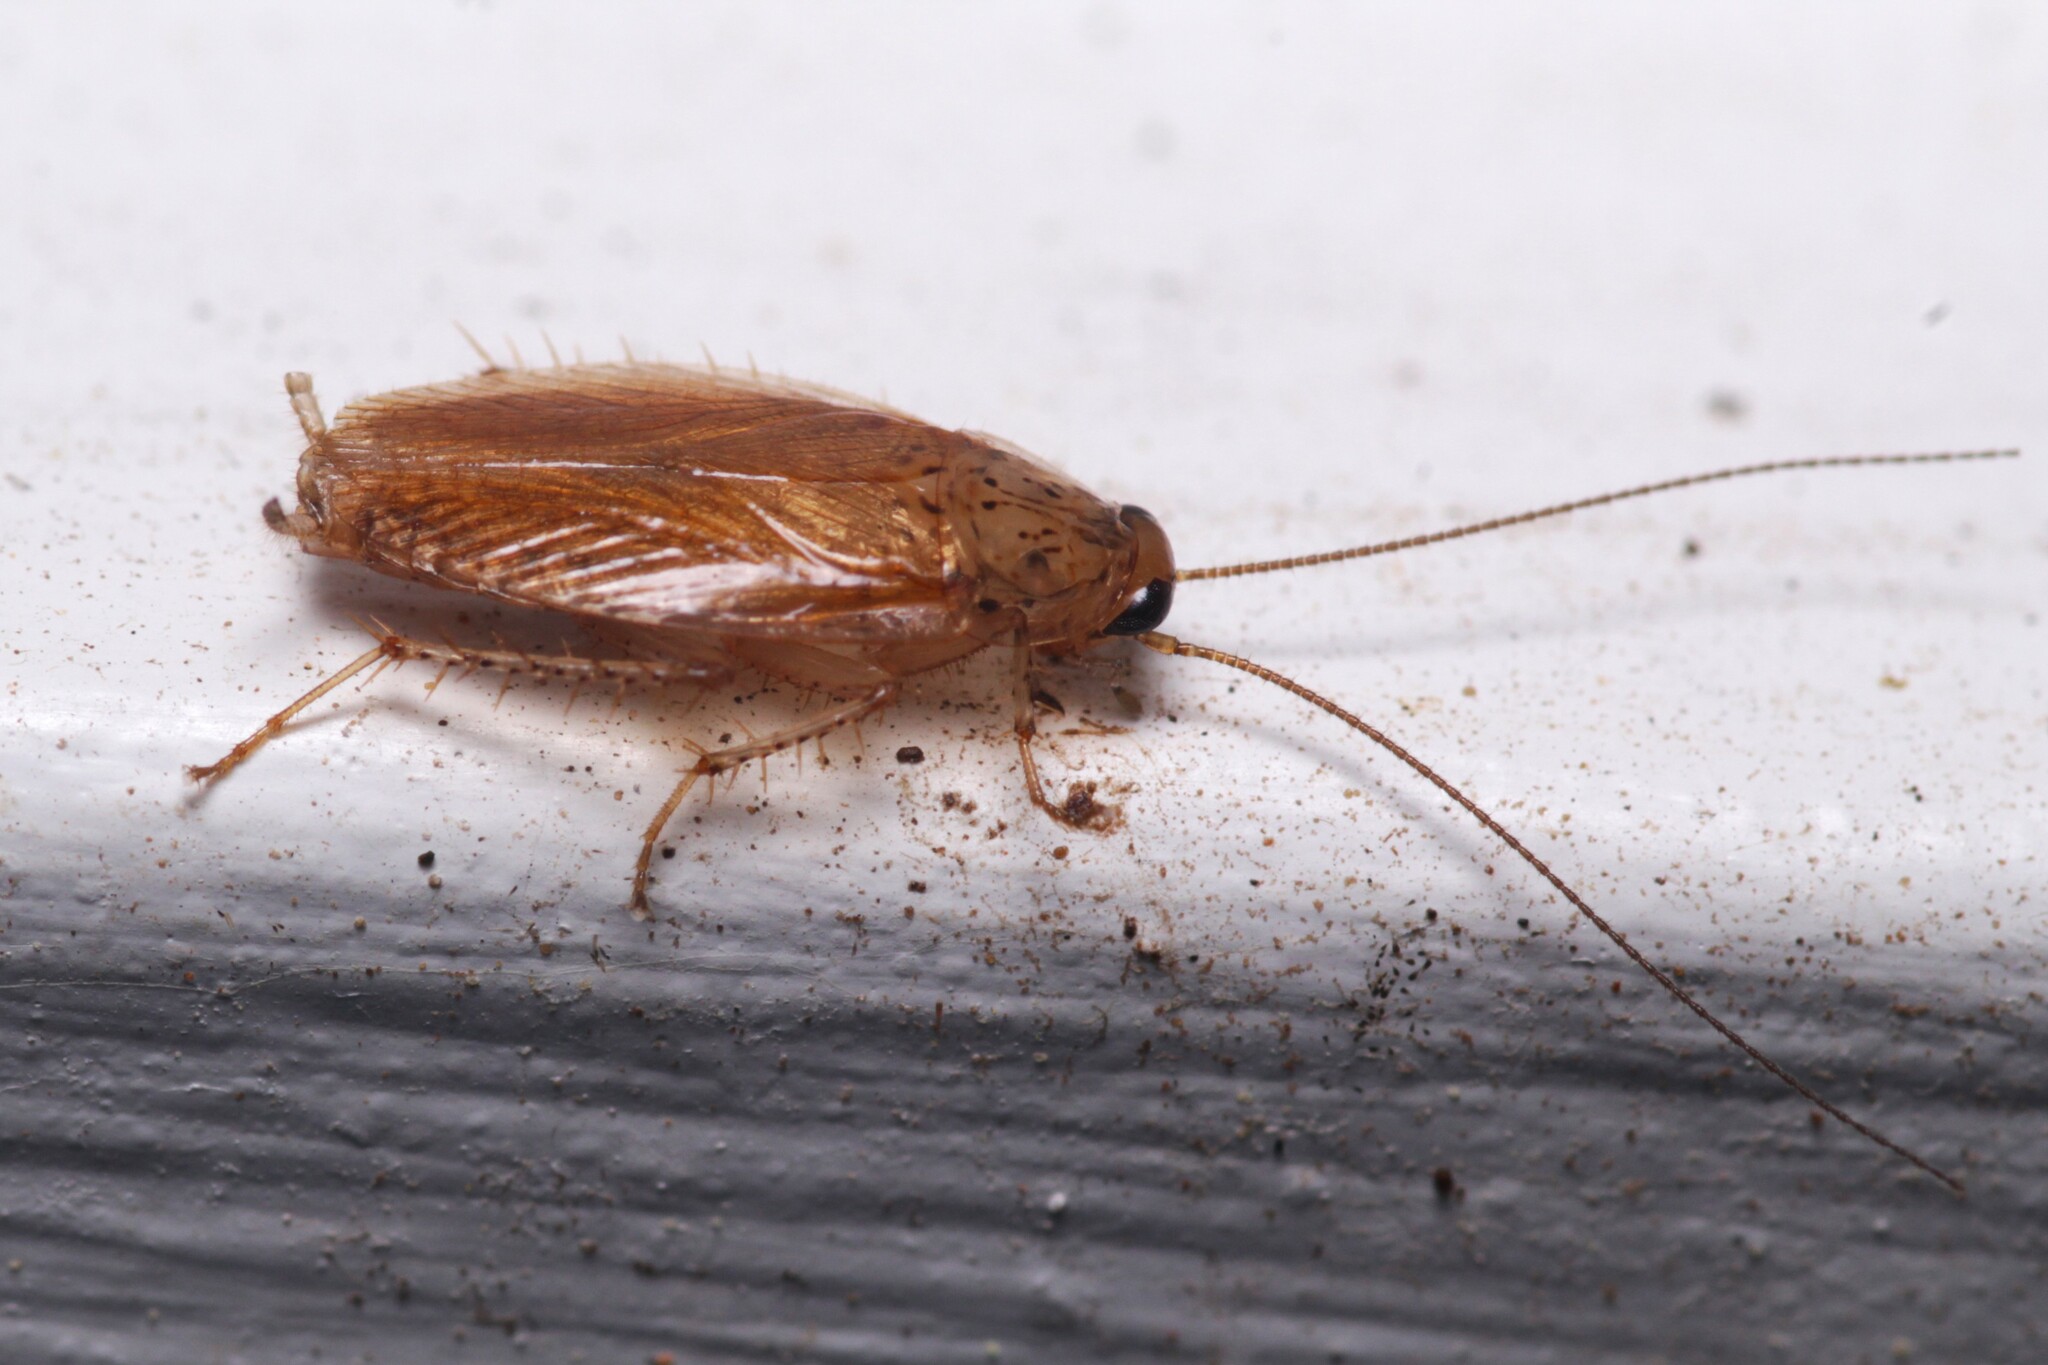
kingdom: Animalia
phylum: Arthropoda
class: Insecta
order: Blattodea
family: Ectobiidae
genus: Cariblatta
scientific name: Cariblatta lutea
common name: Small yellow cockroach
